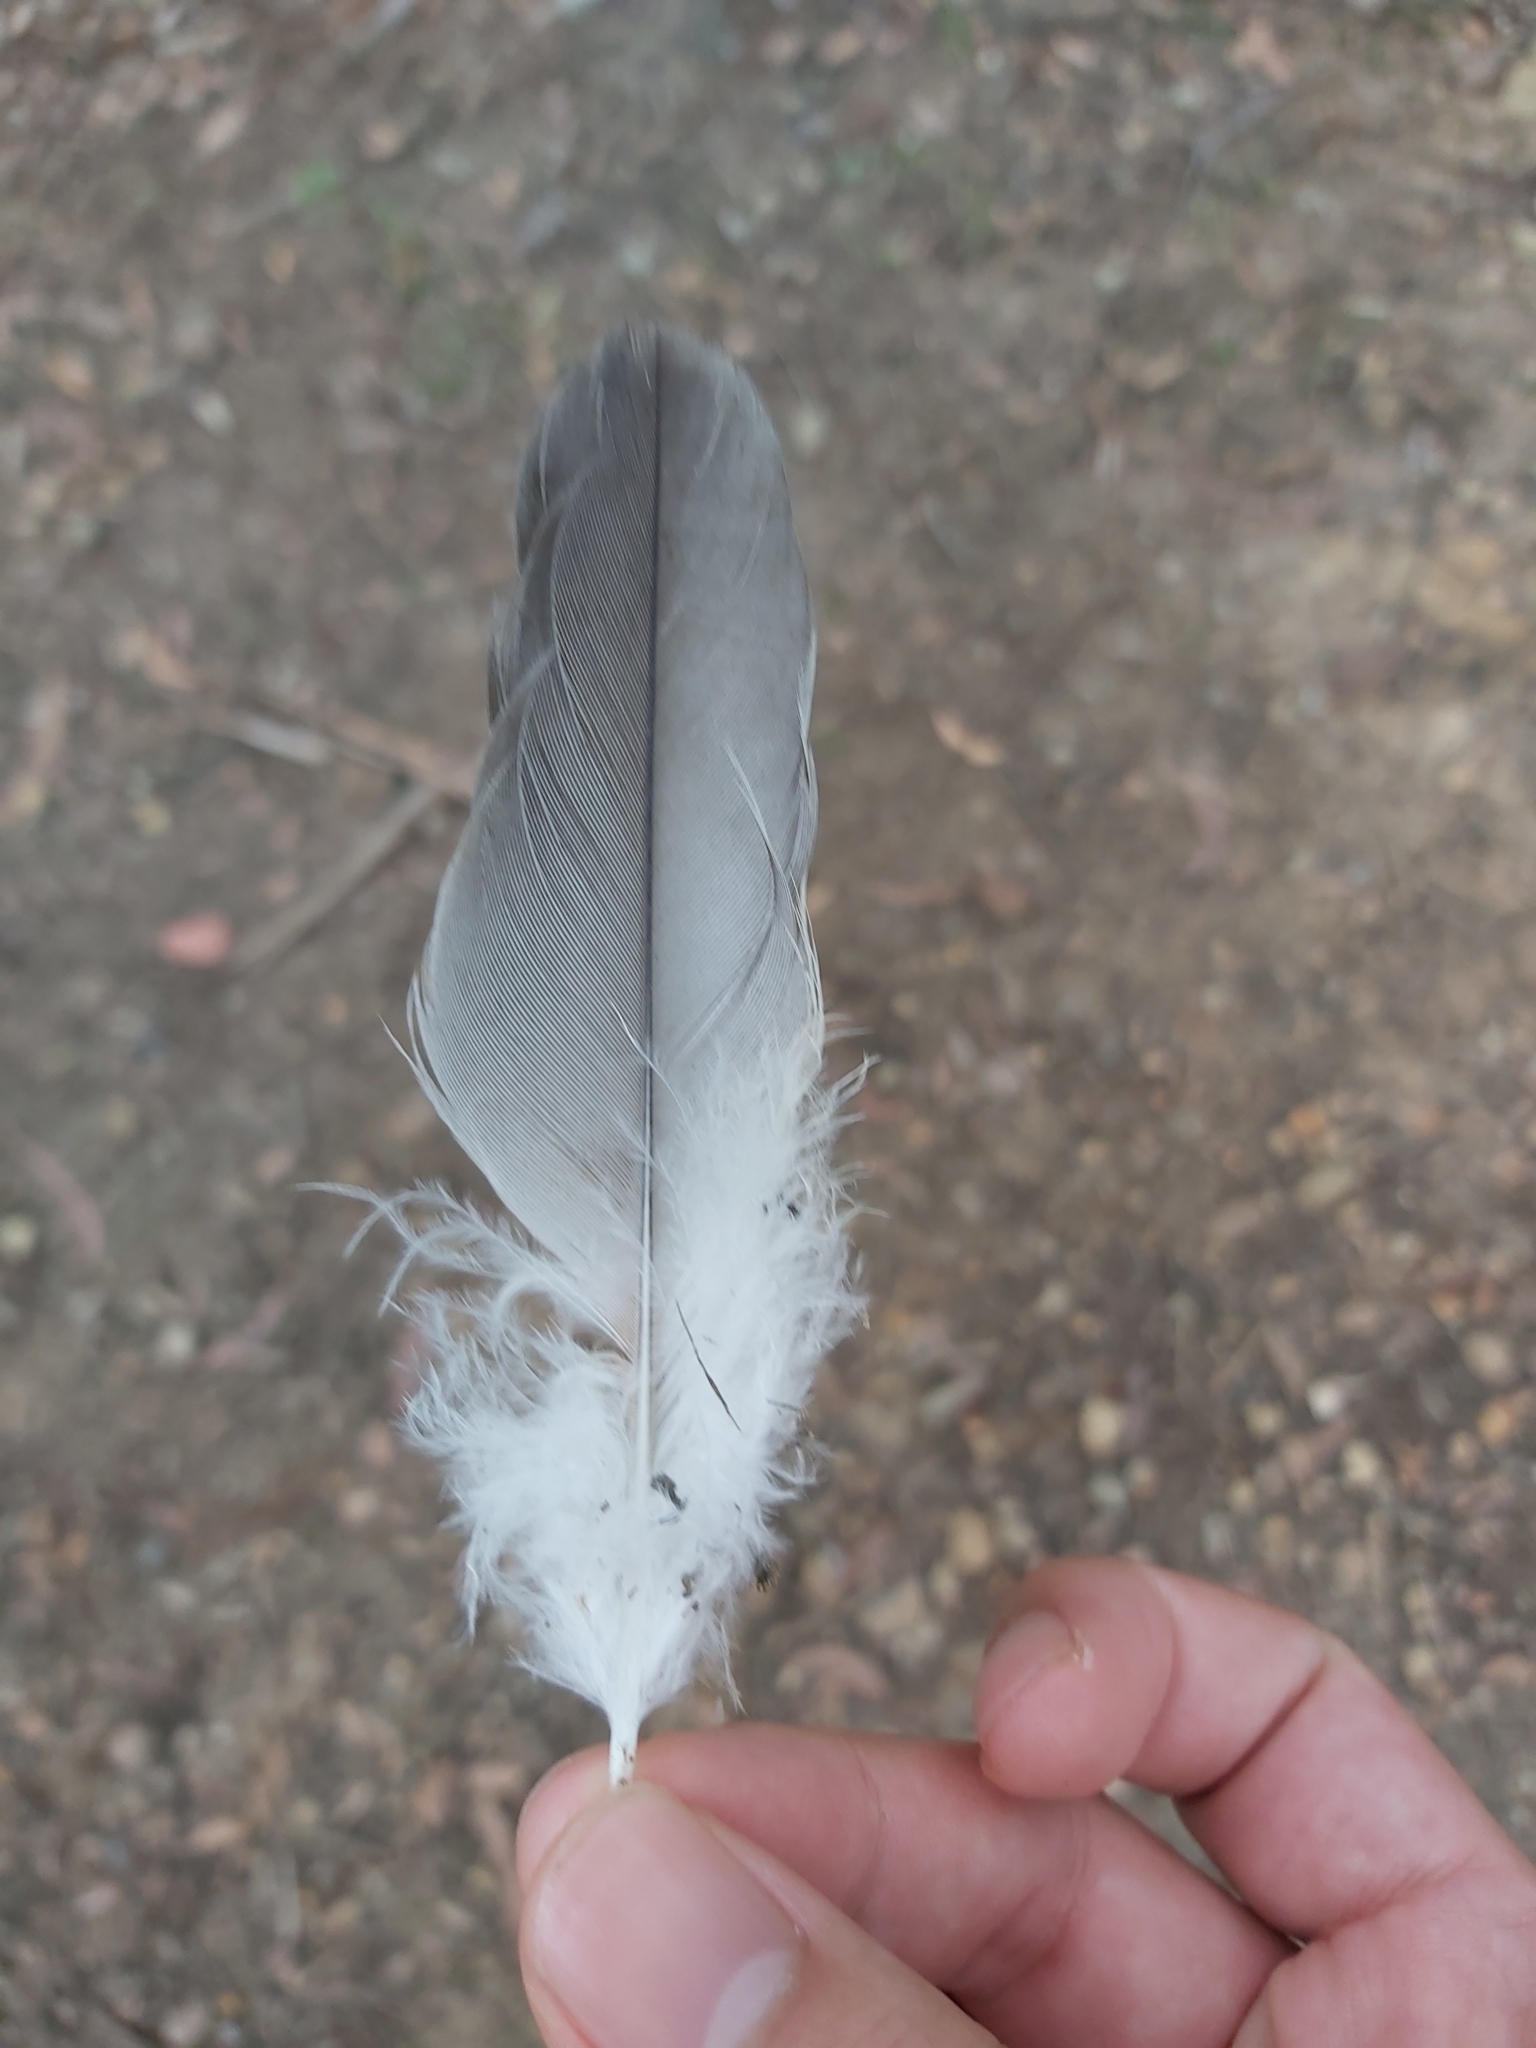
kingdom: Animalia
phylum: Chordata
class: Aves
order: Psittaciformes
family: Psittacidae
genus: Eolophus
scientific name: Eolophus roseicapilla
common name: Galah
